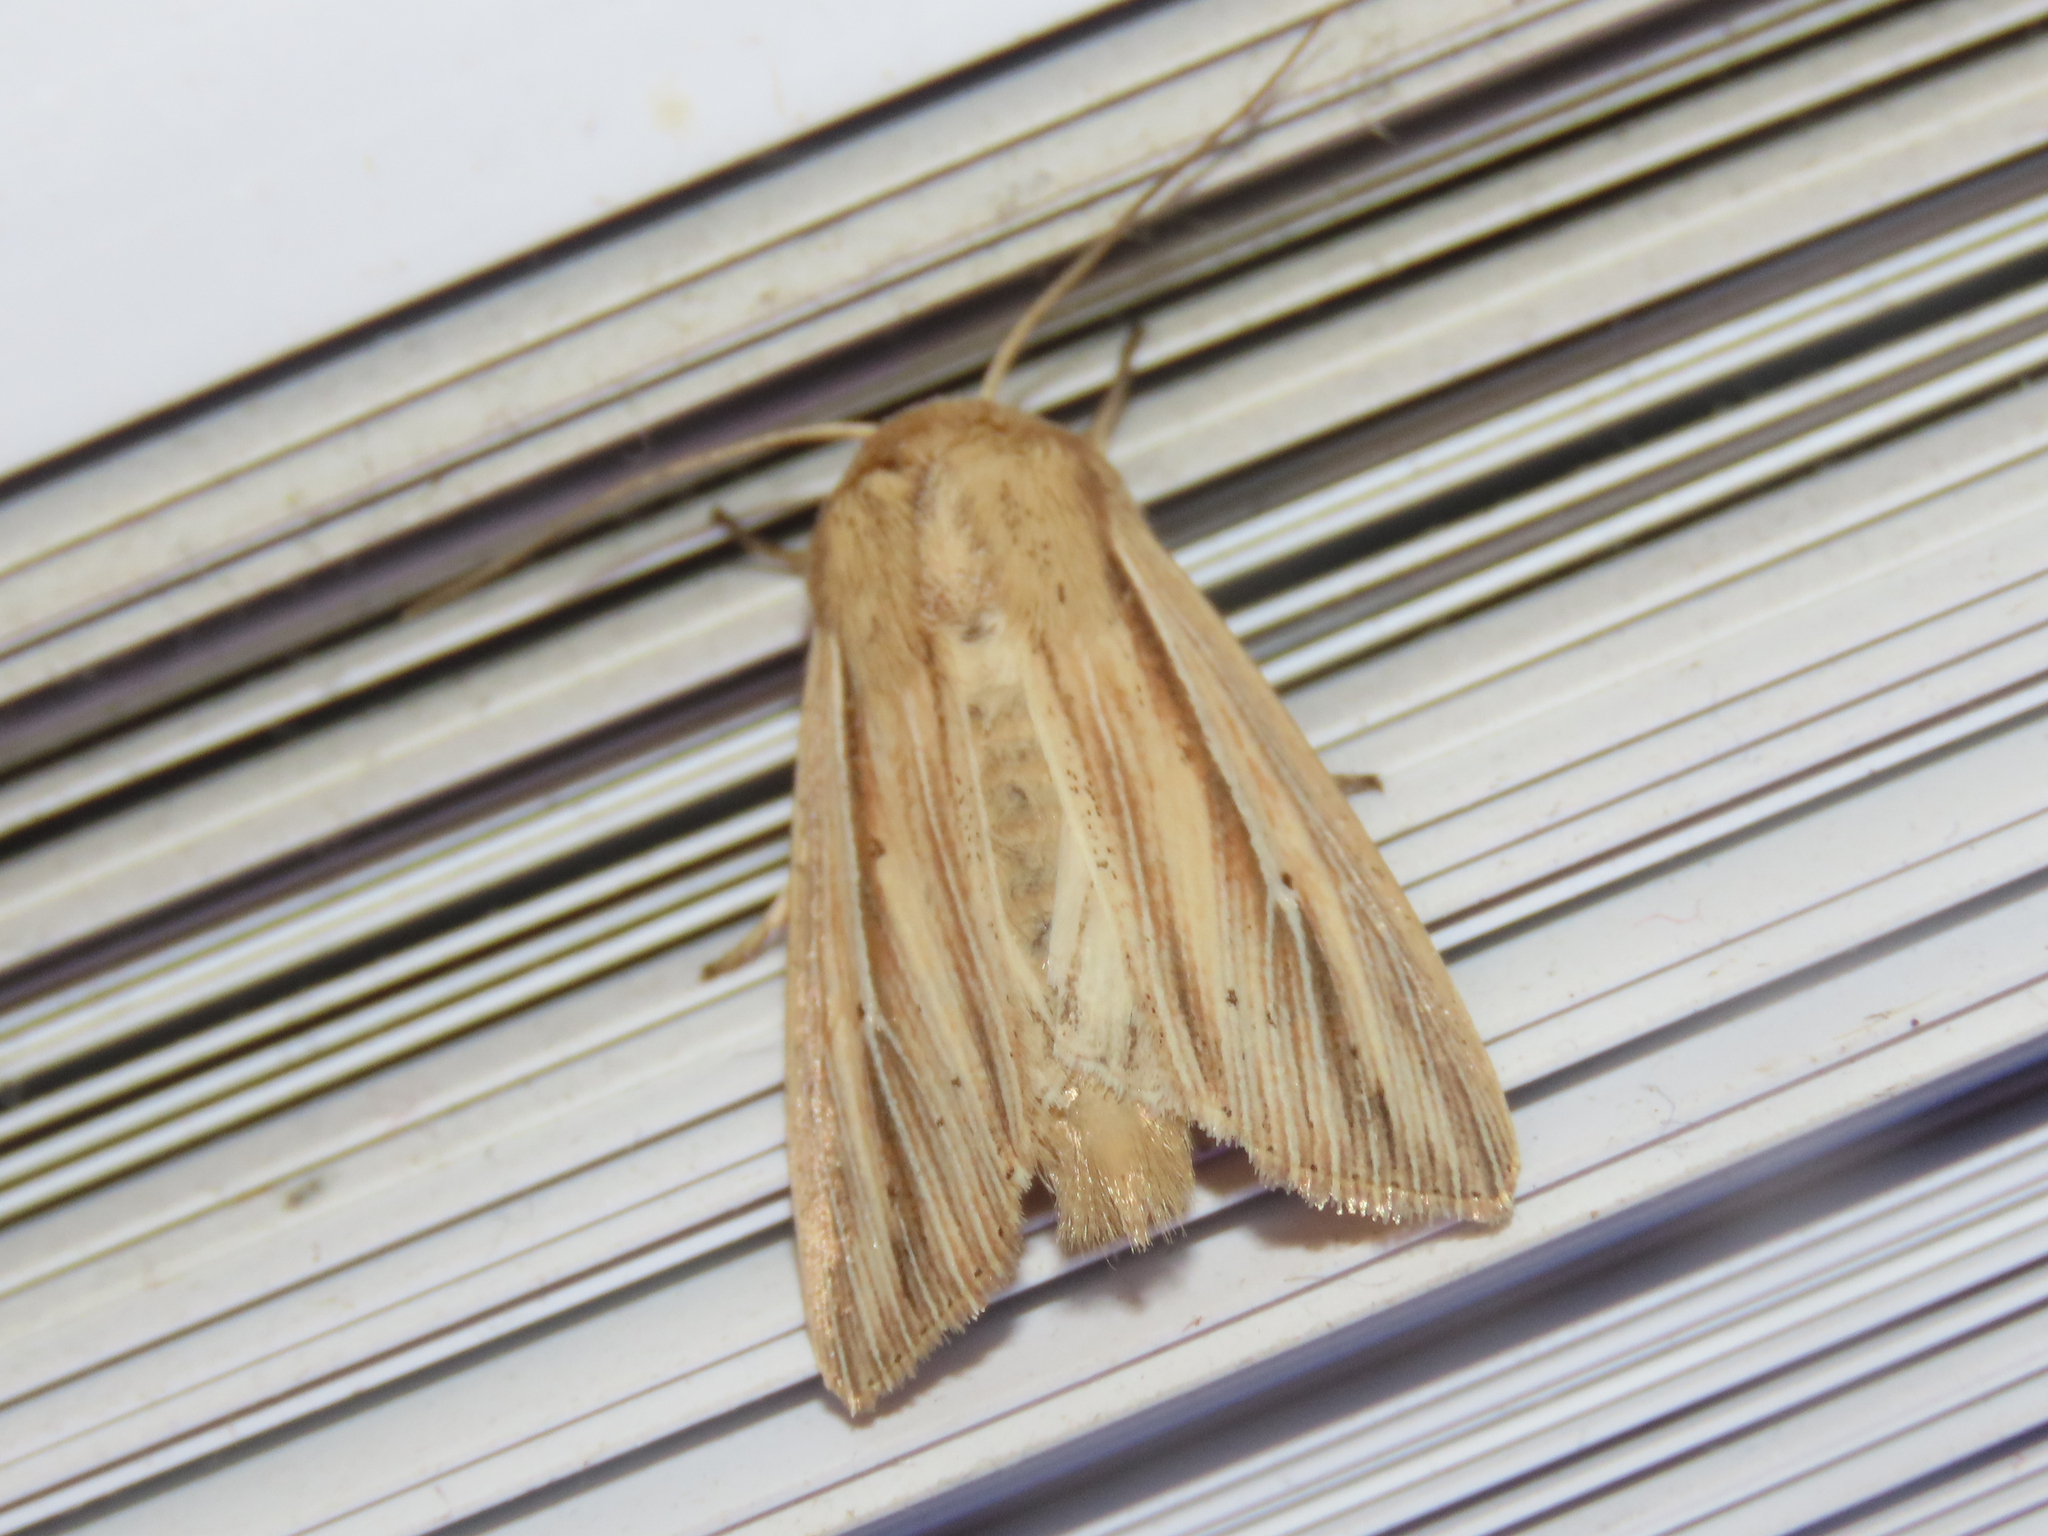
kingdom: Animalia
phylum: Arthropoda
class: Insecta
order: Lepidoptera
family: Noctuidae
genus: Leucania
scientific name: Leucania multilinea
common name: Many-lined wainscot
